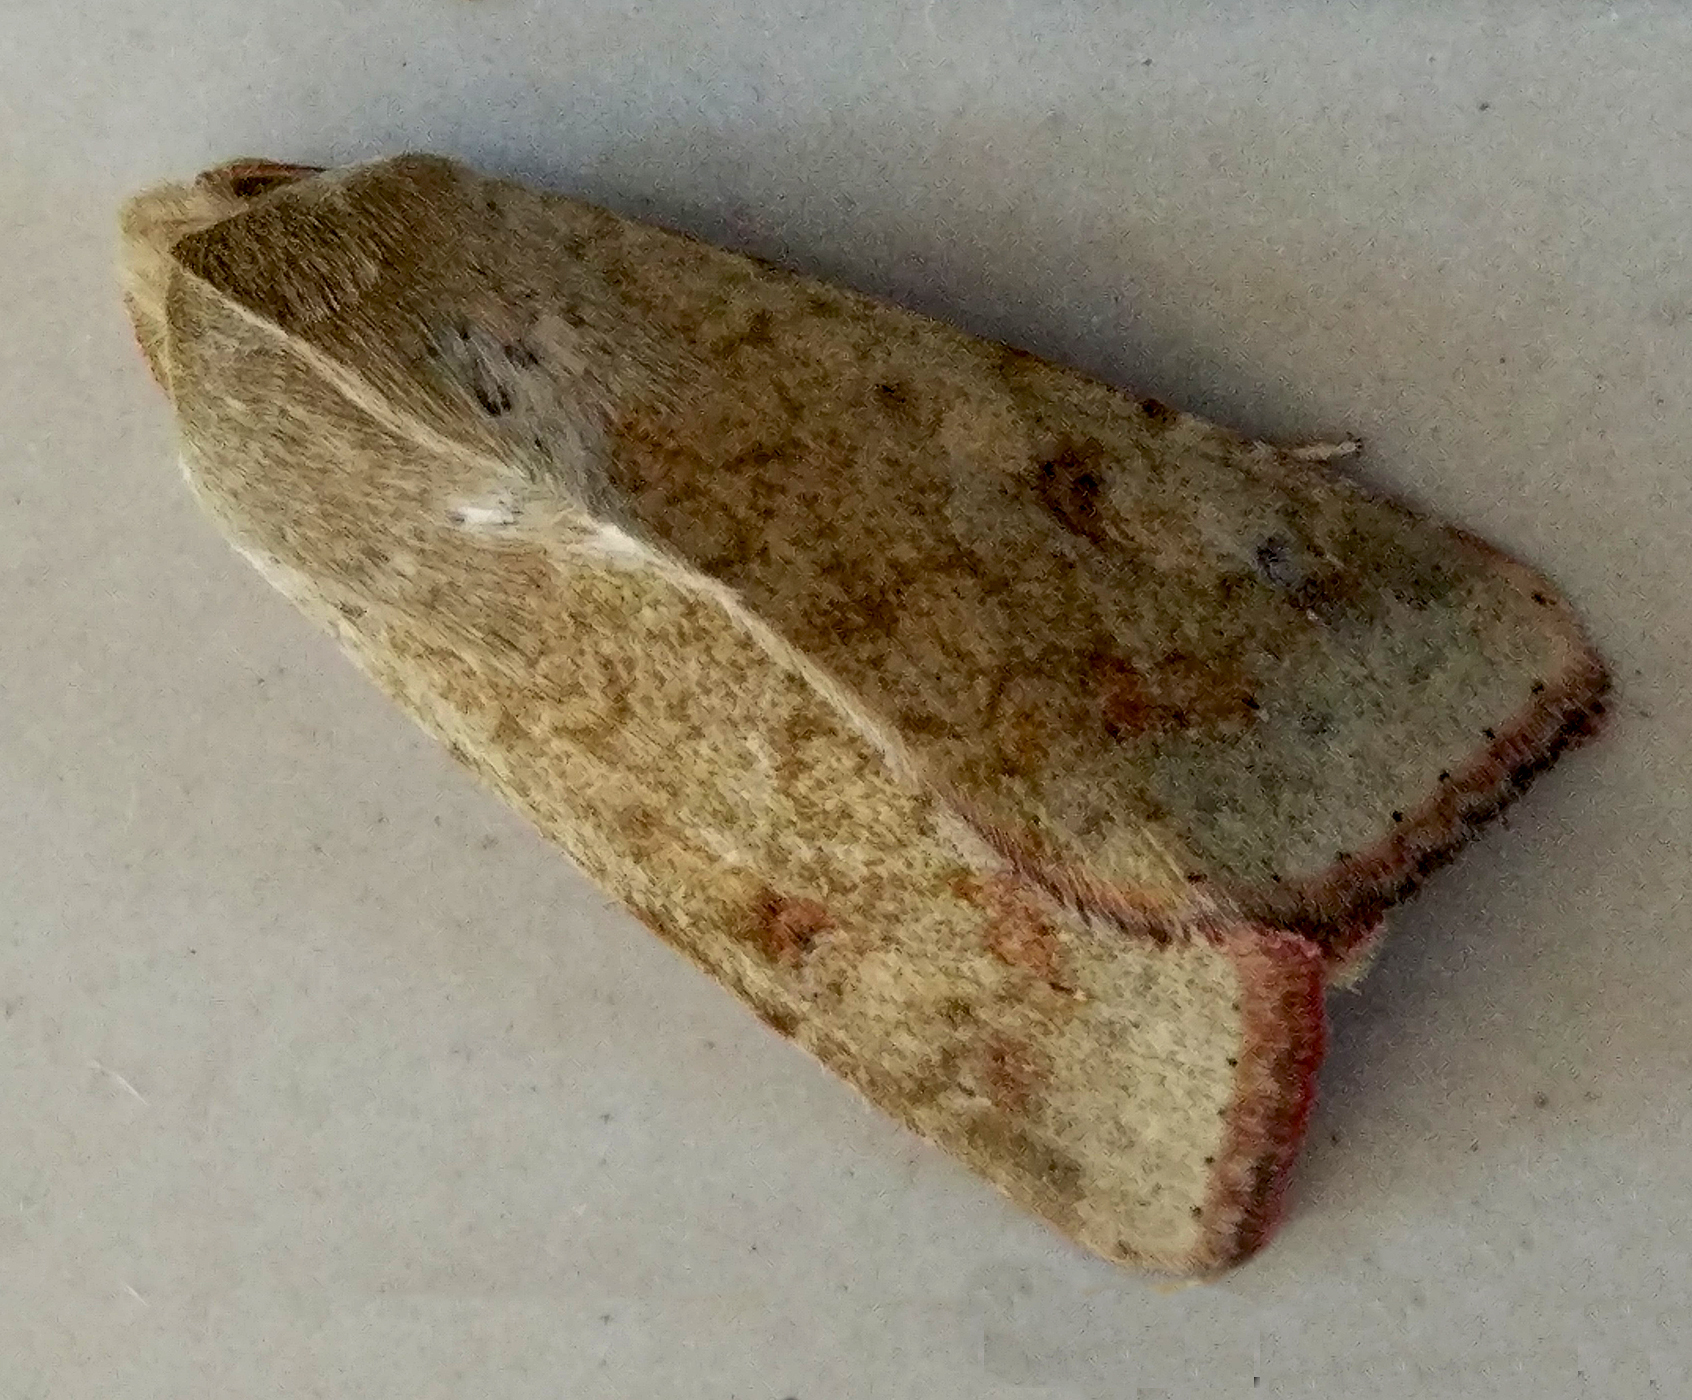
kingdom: Animalia
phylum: Arthropoda
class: Insecta
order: Lepidoptera
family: Noctuidae
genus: Helicoverpa
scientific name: Helicoverpa armigera
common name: Cotton bollworm
